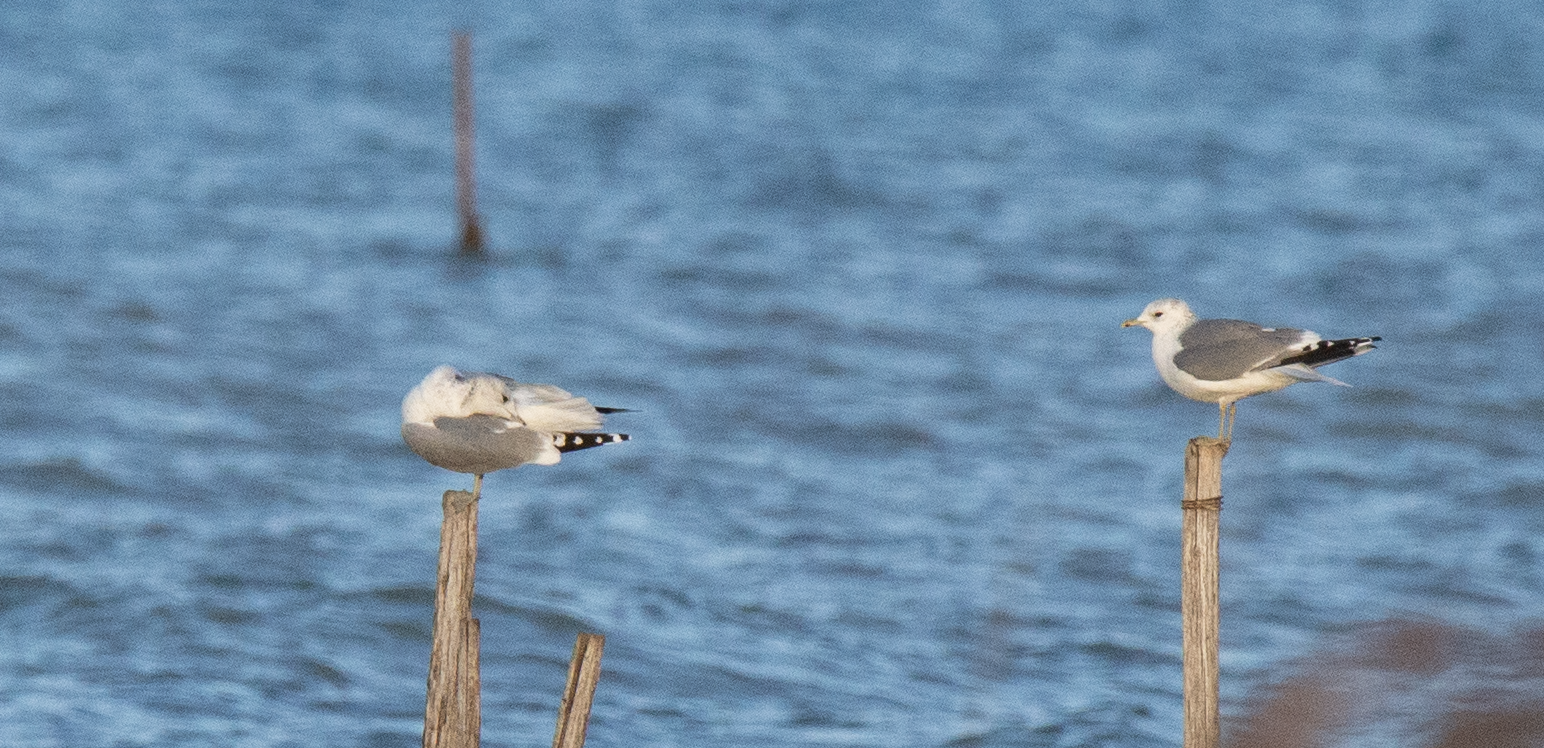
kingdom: Animalia
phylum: Chordata
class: Aves
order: Charadriiformes
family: Laridae
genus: Larus
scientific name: Larus canus
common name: Mew gull
